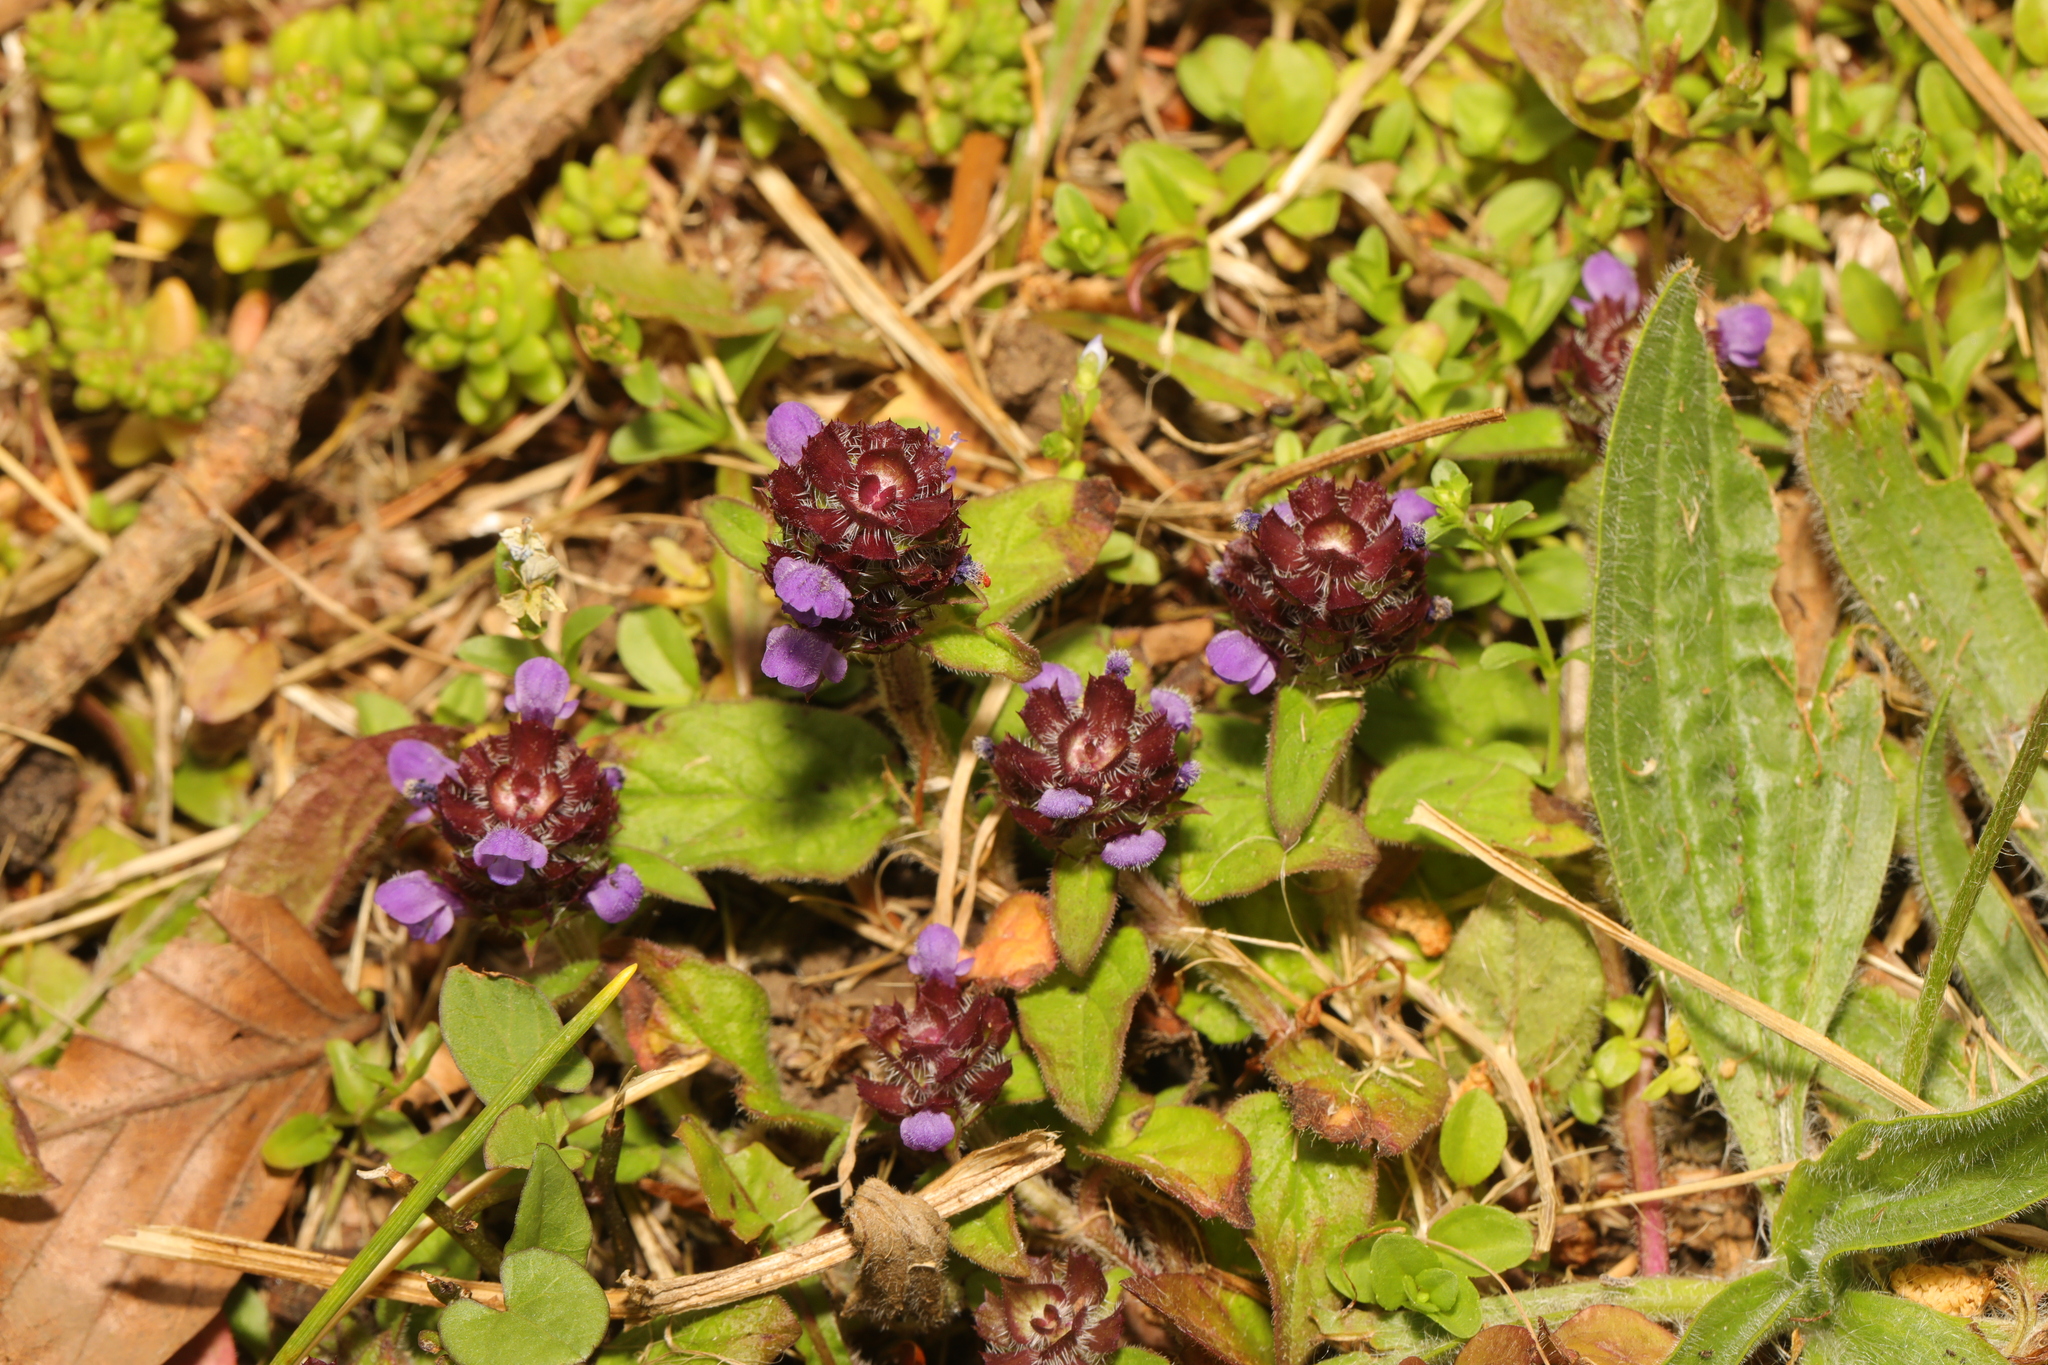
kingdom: Plantae
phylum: Tracheophyta
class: Magnoliopsida
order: Lamiales
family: Lamiaceae
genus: Prunella
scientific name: Prunella vulgaris
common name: Heal-all
